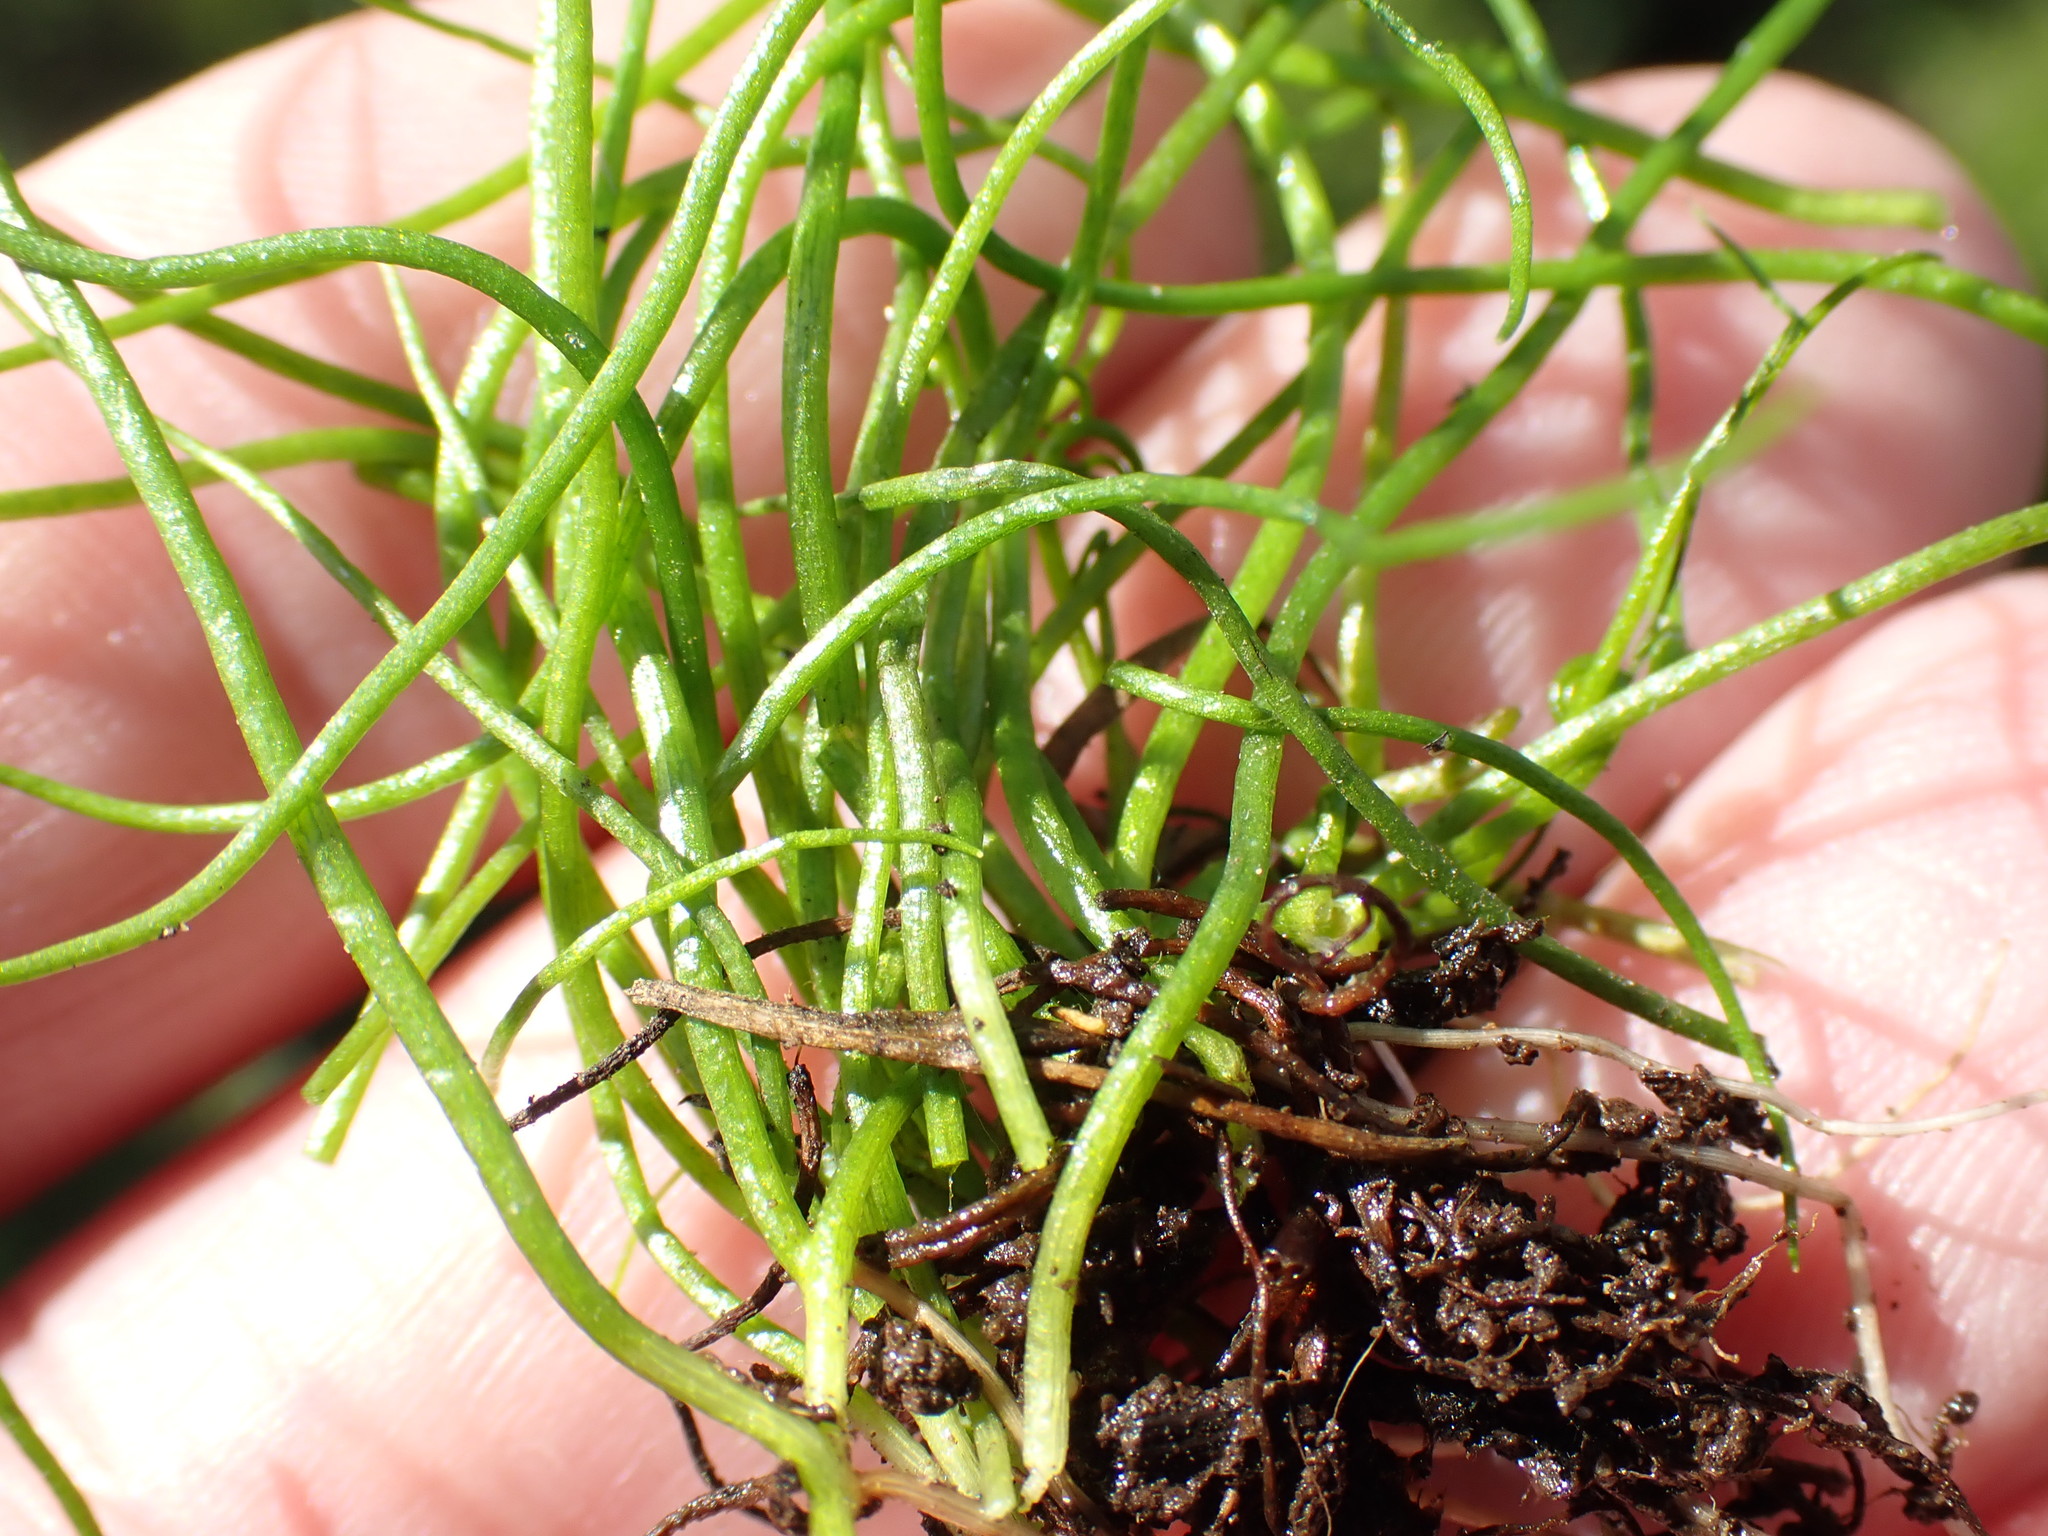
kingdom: Plantae
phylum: Tracheophyta
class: Polypodiopsida
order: Salviniales
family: Marsileaceae
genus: Pilularia
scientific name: Pilularia globulifera
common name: Pillwort
